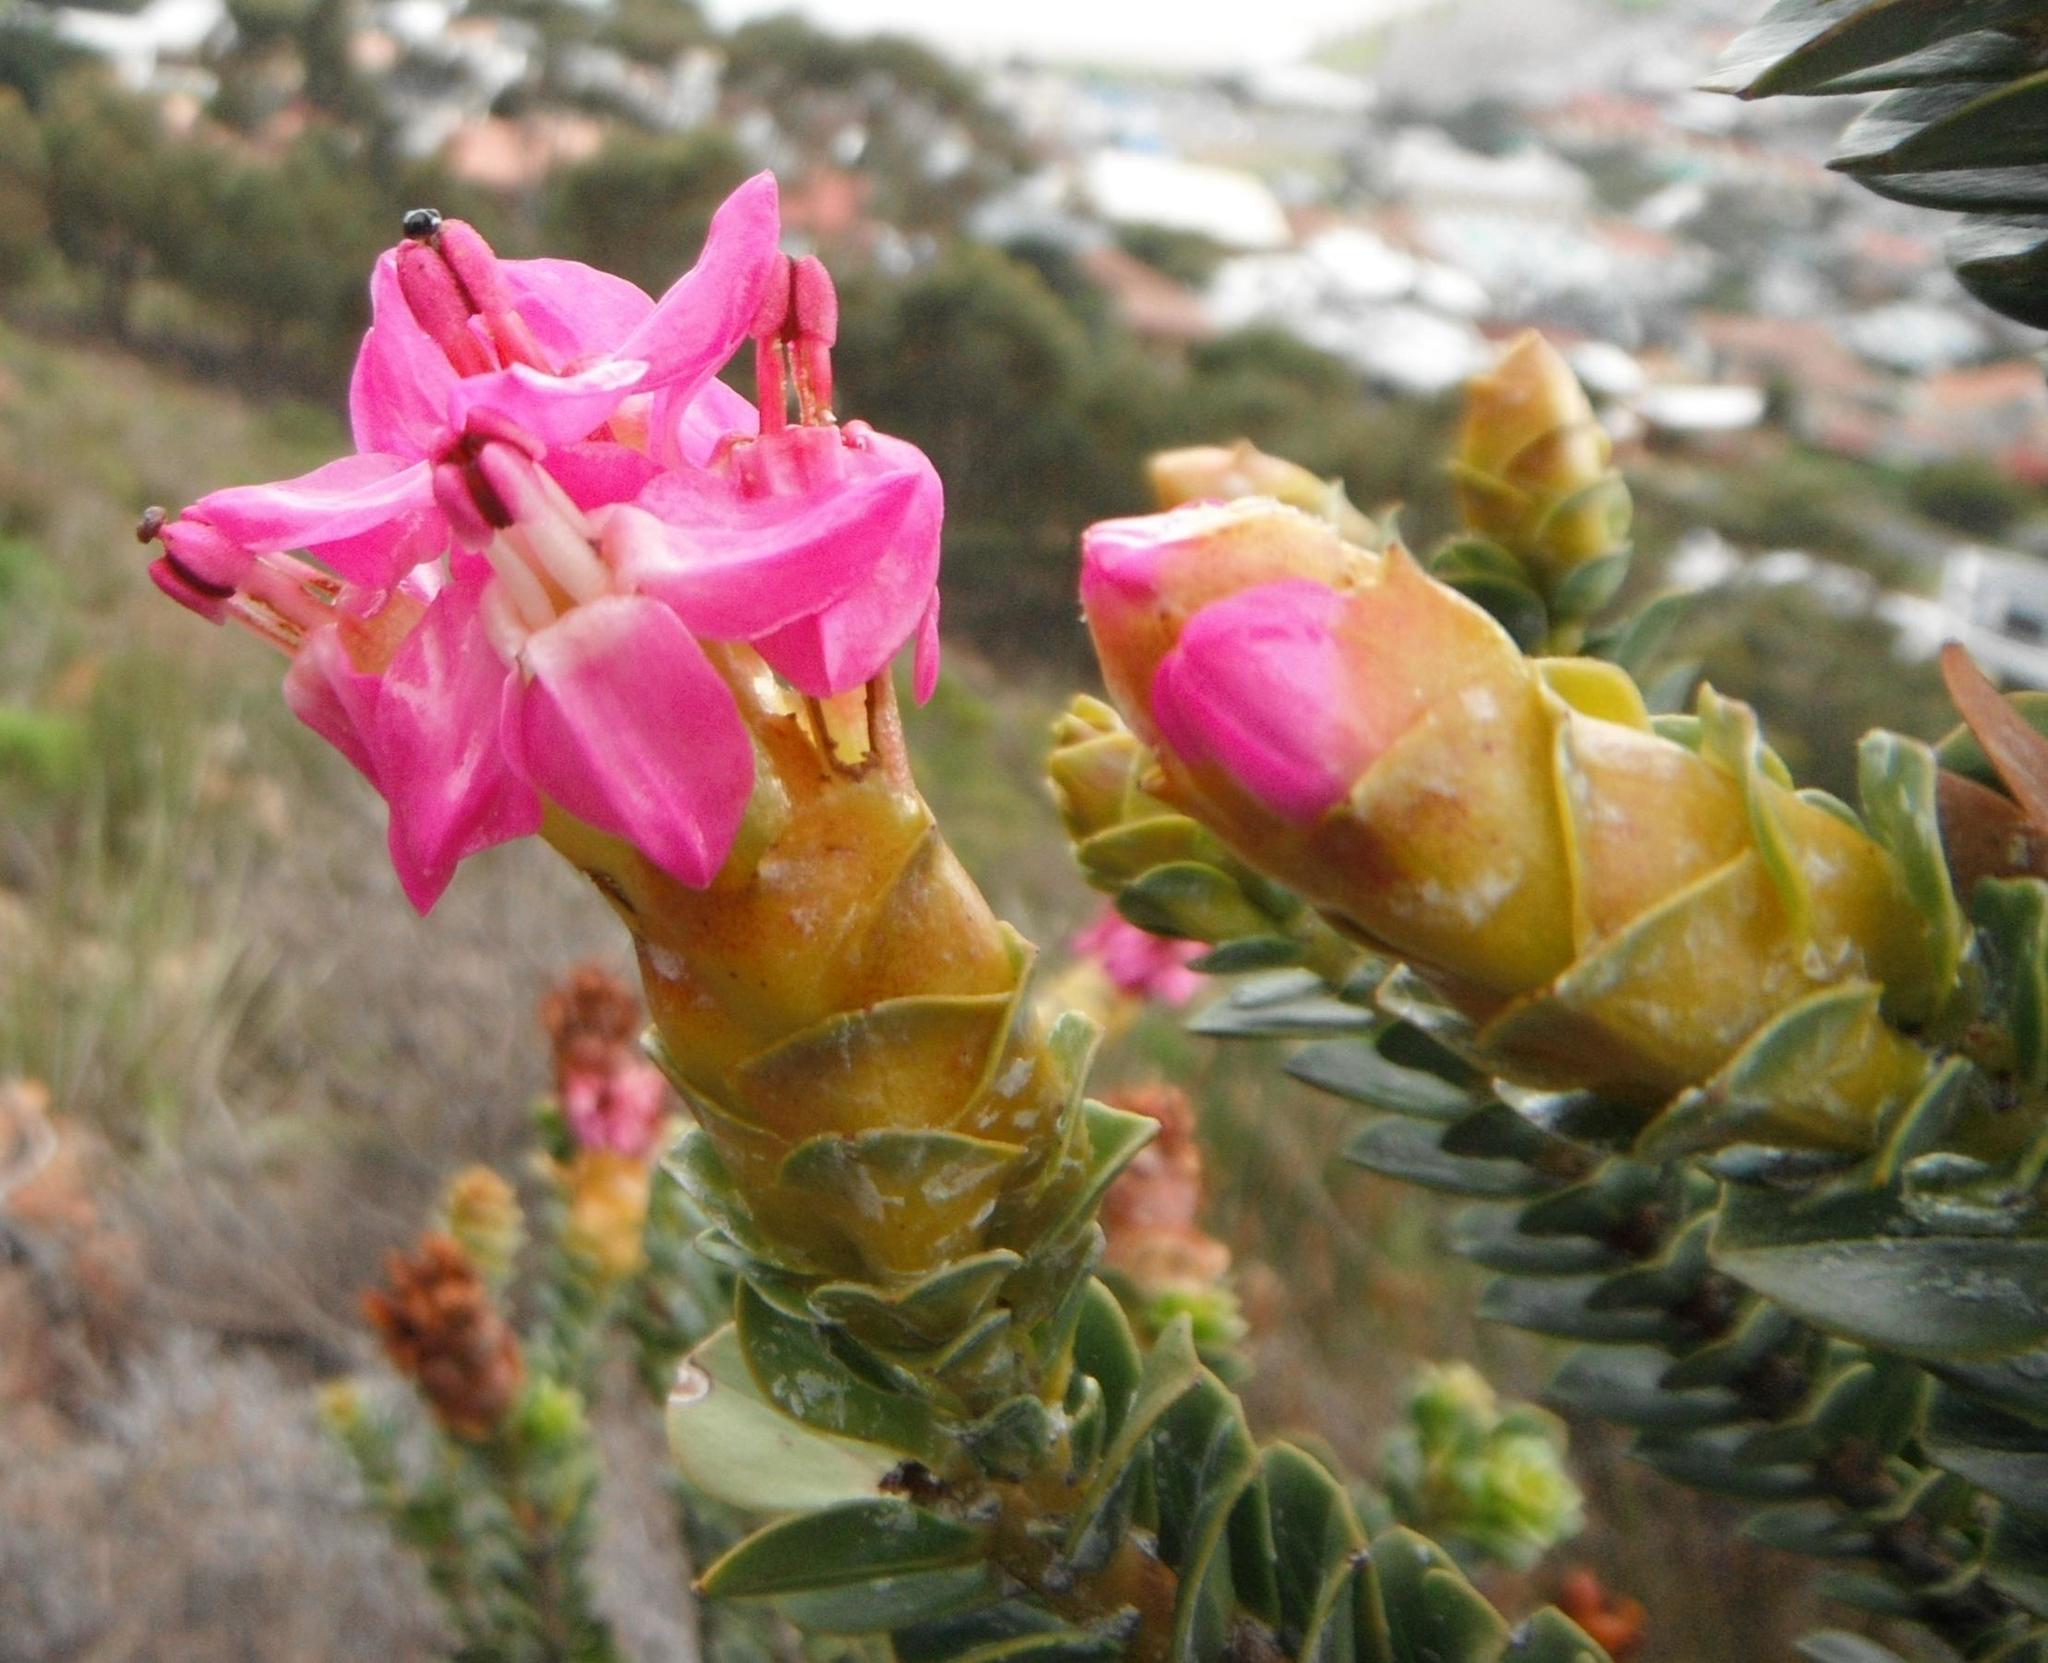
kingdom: Plantae
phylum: Tracheophyta
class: Magnoliopsida
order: Myrtales
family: Penaeaceae
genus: Saltera
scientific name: Saltera sarcocolla
